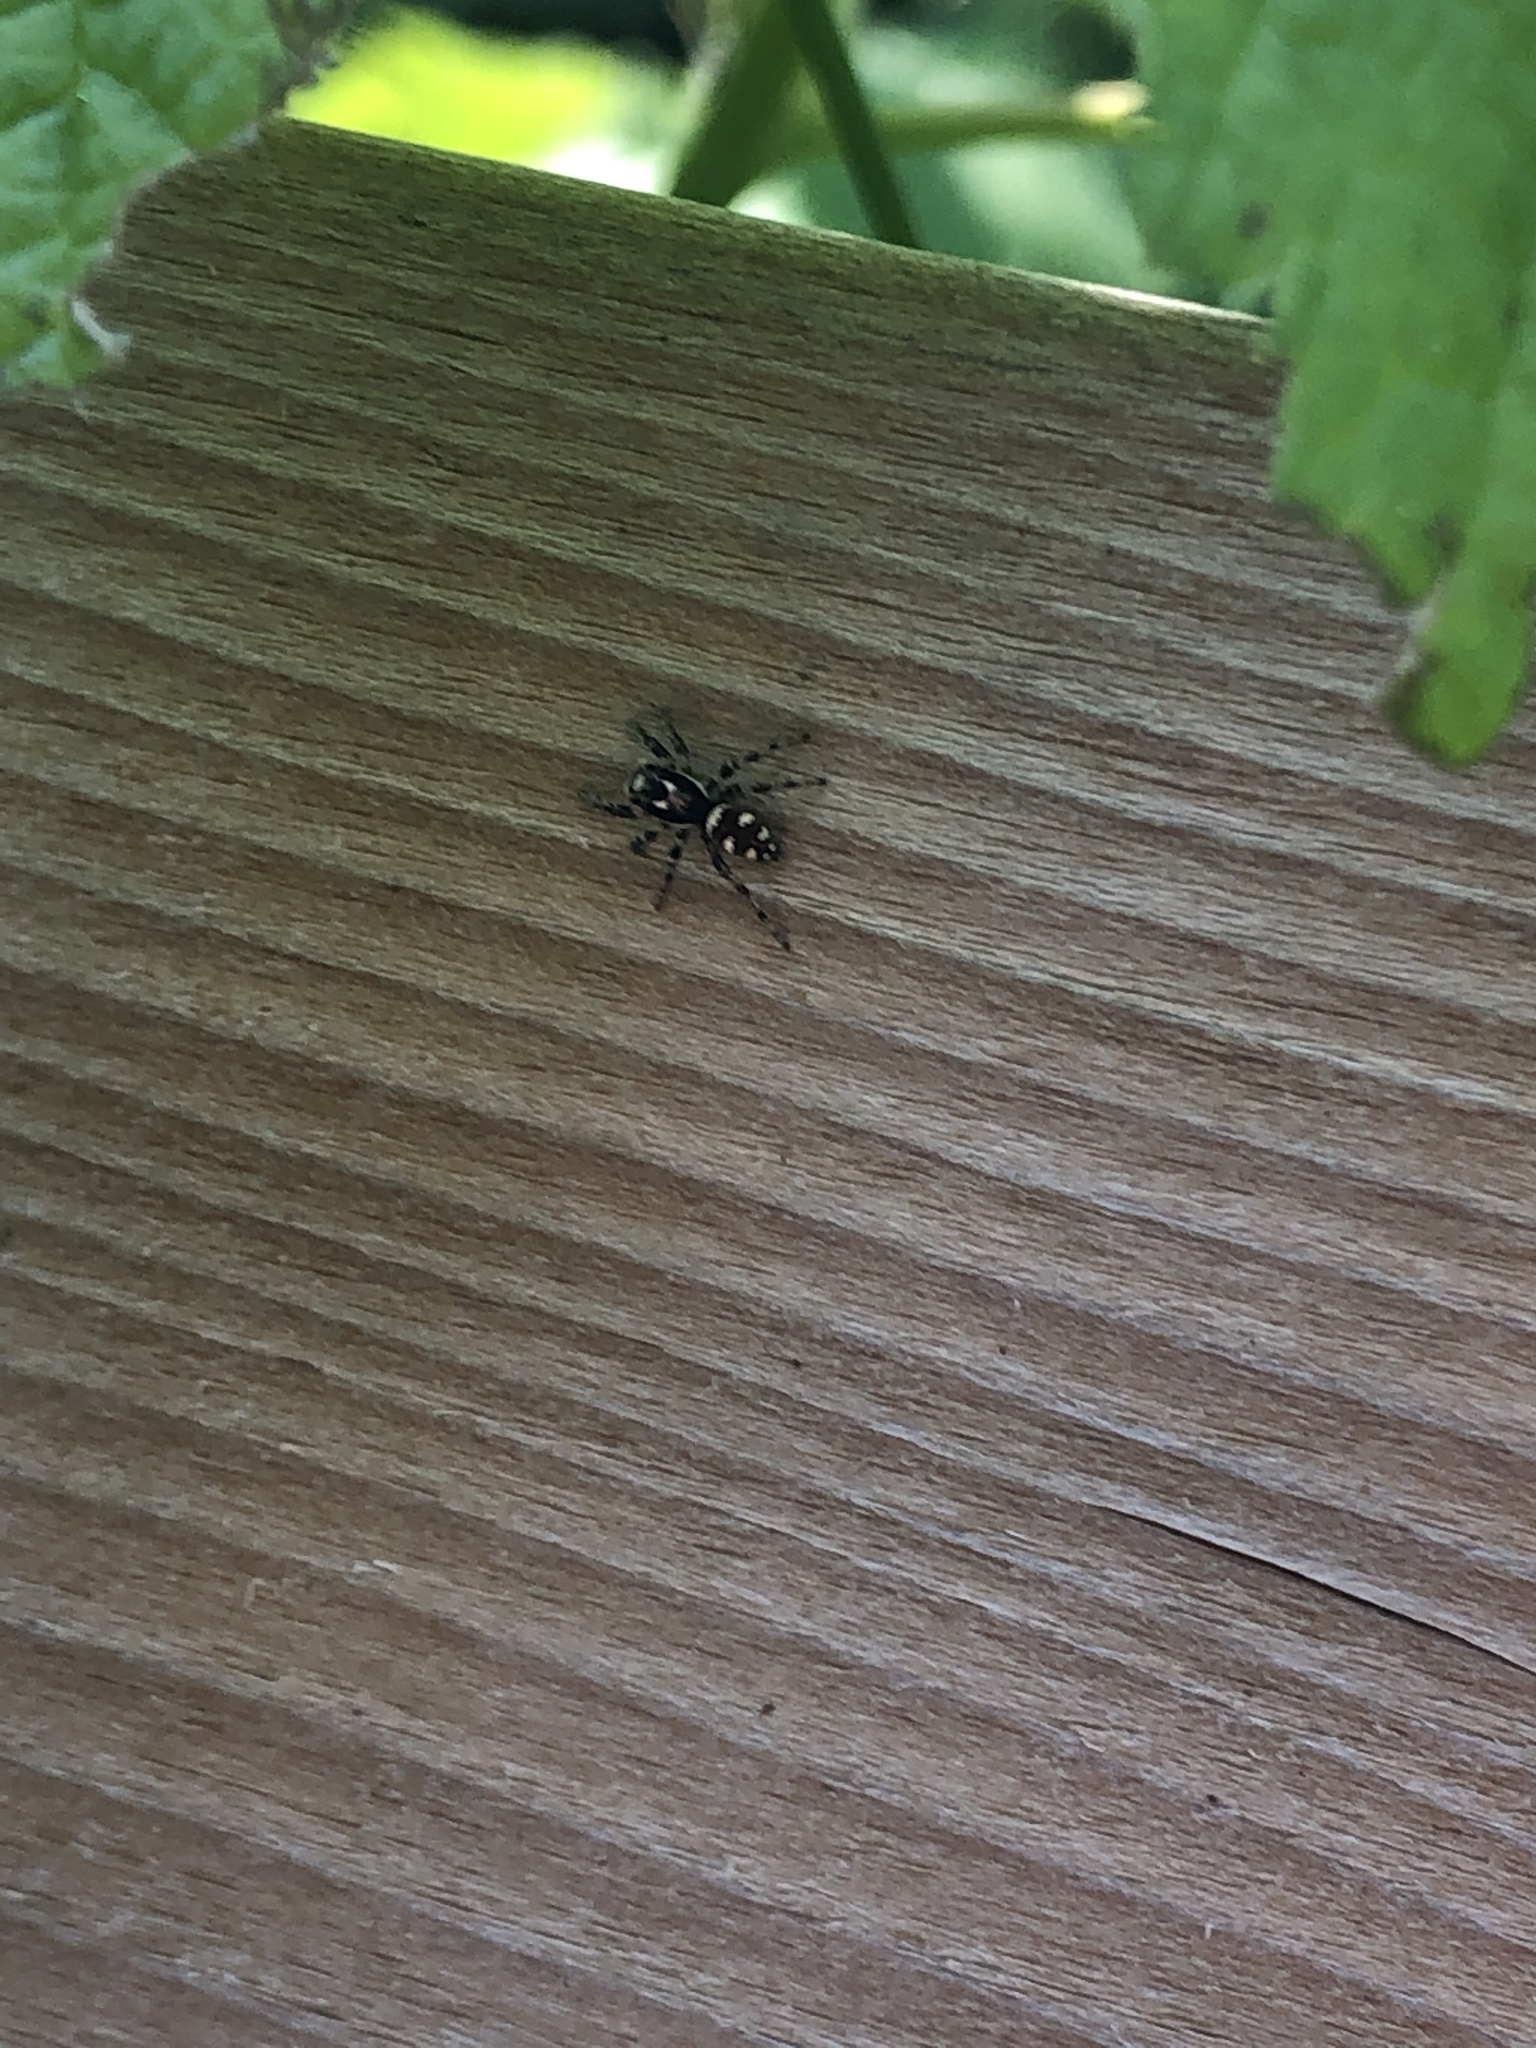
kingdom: Animalia
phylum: Arthropoda
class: Arachnida
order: Araneae
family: Salticidae
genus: Salticus
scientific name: Salticus scenicus
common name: Zebra jumper
